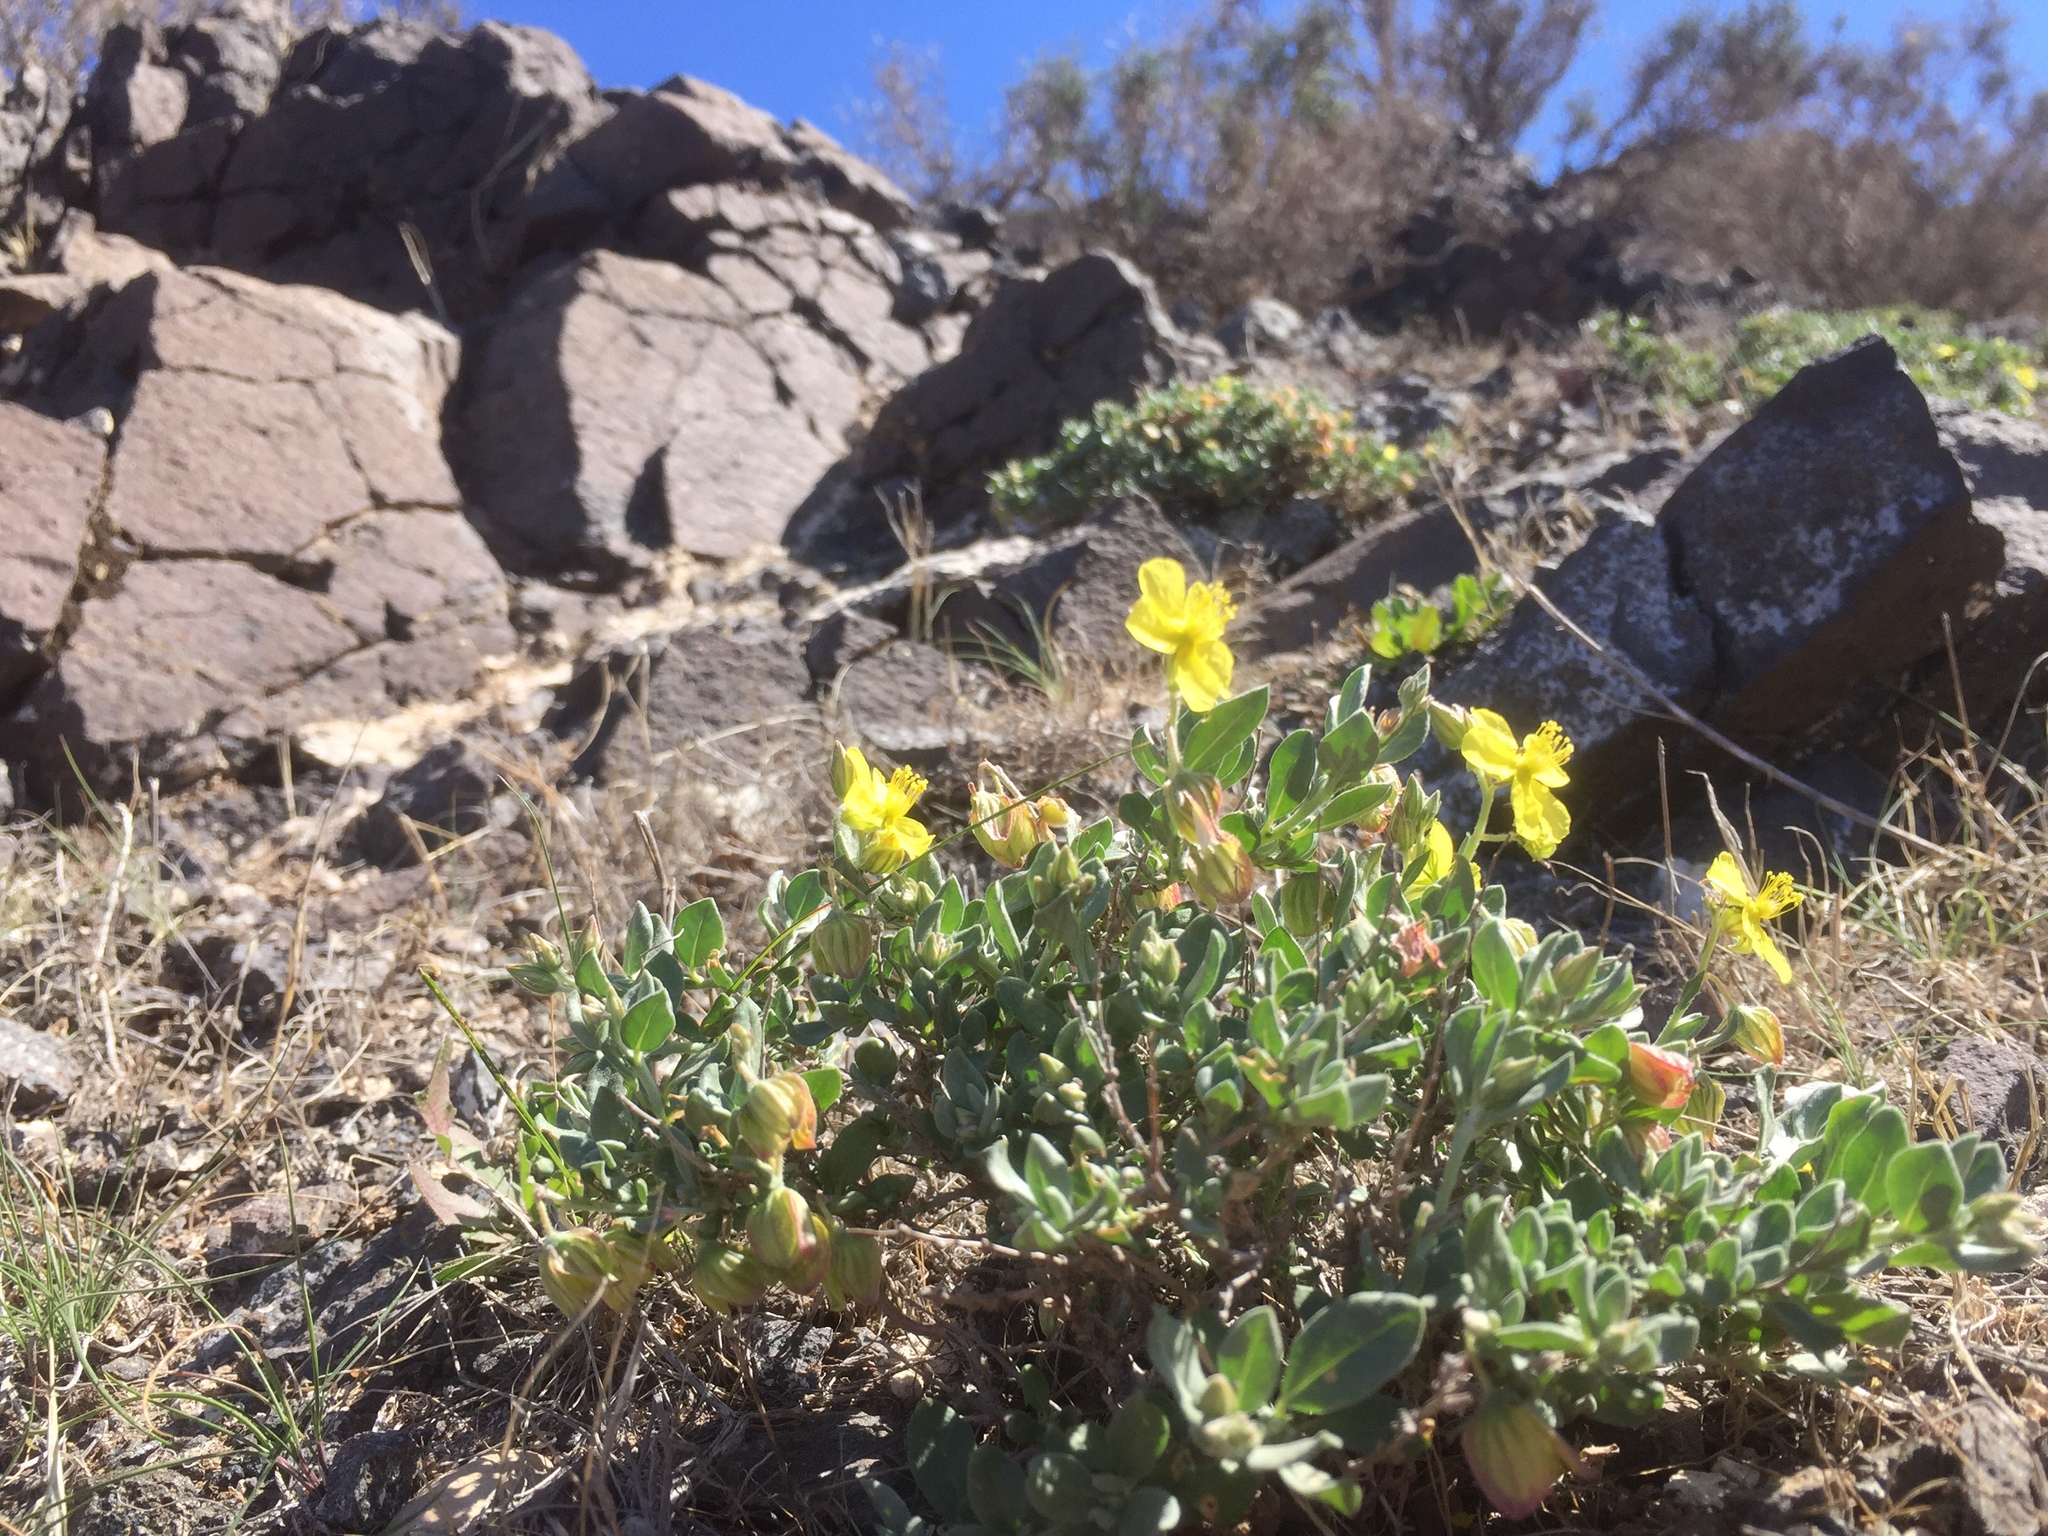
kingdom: Plantae
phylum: Tracheophyta
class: Magnoliopsida
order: Malvales
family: Cistaceae
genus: Helianthemum
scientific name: Helianthemum canariense
